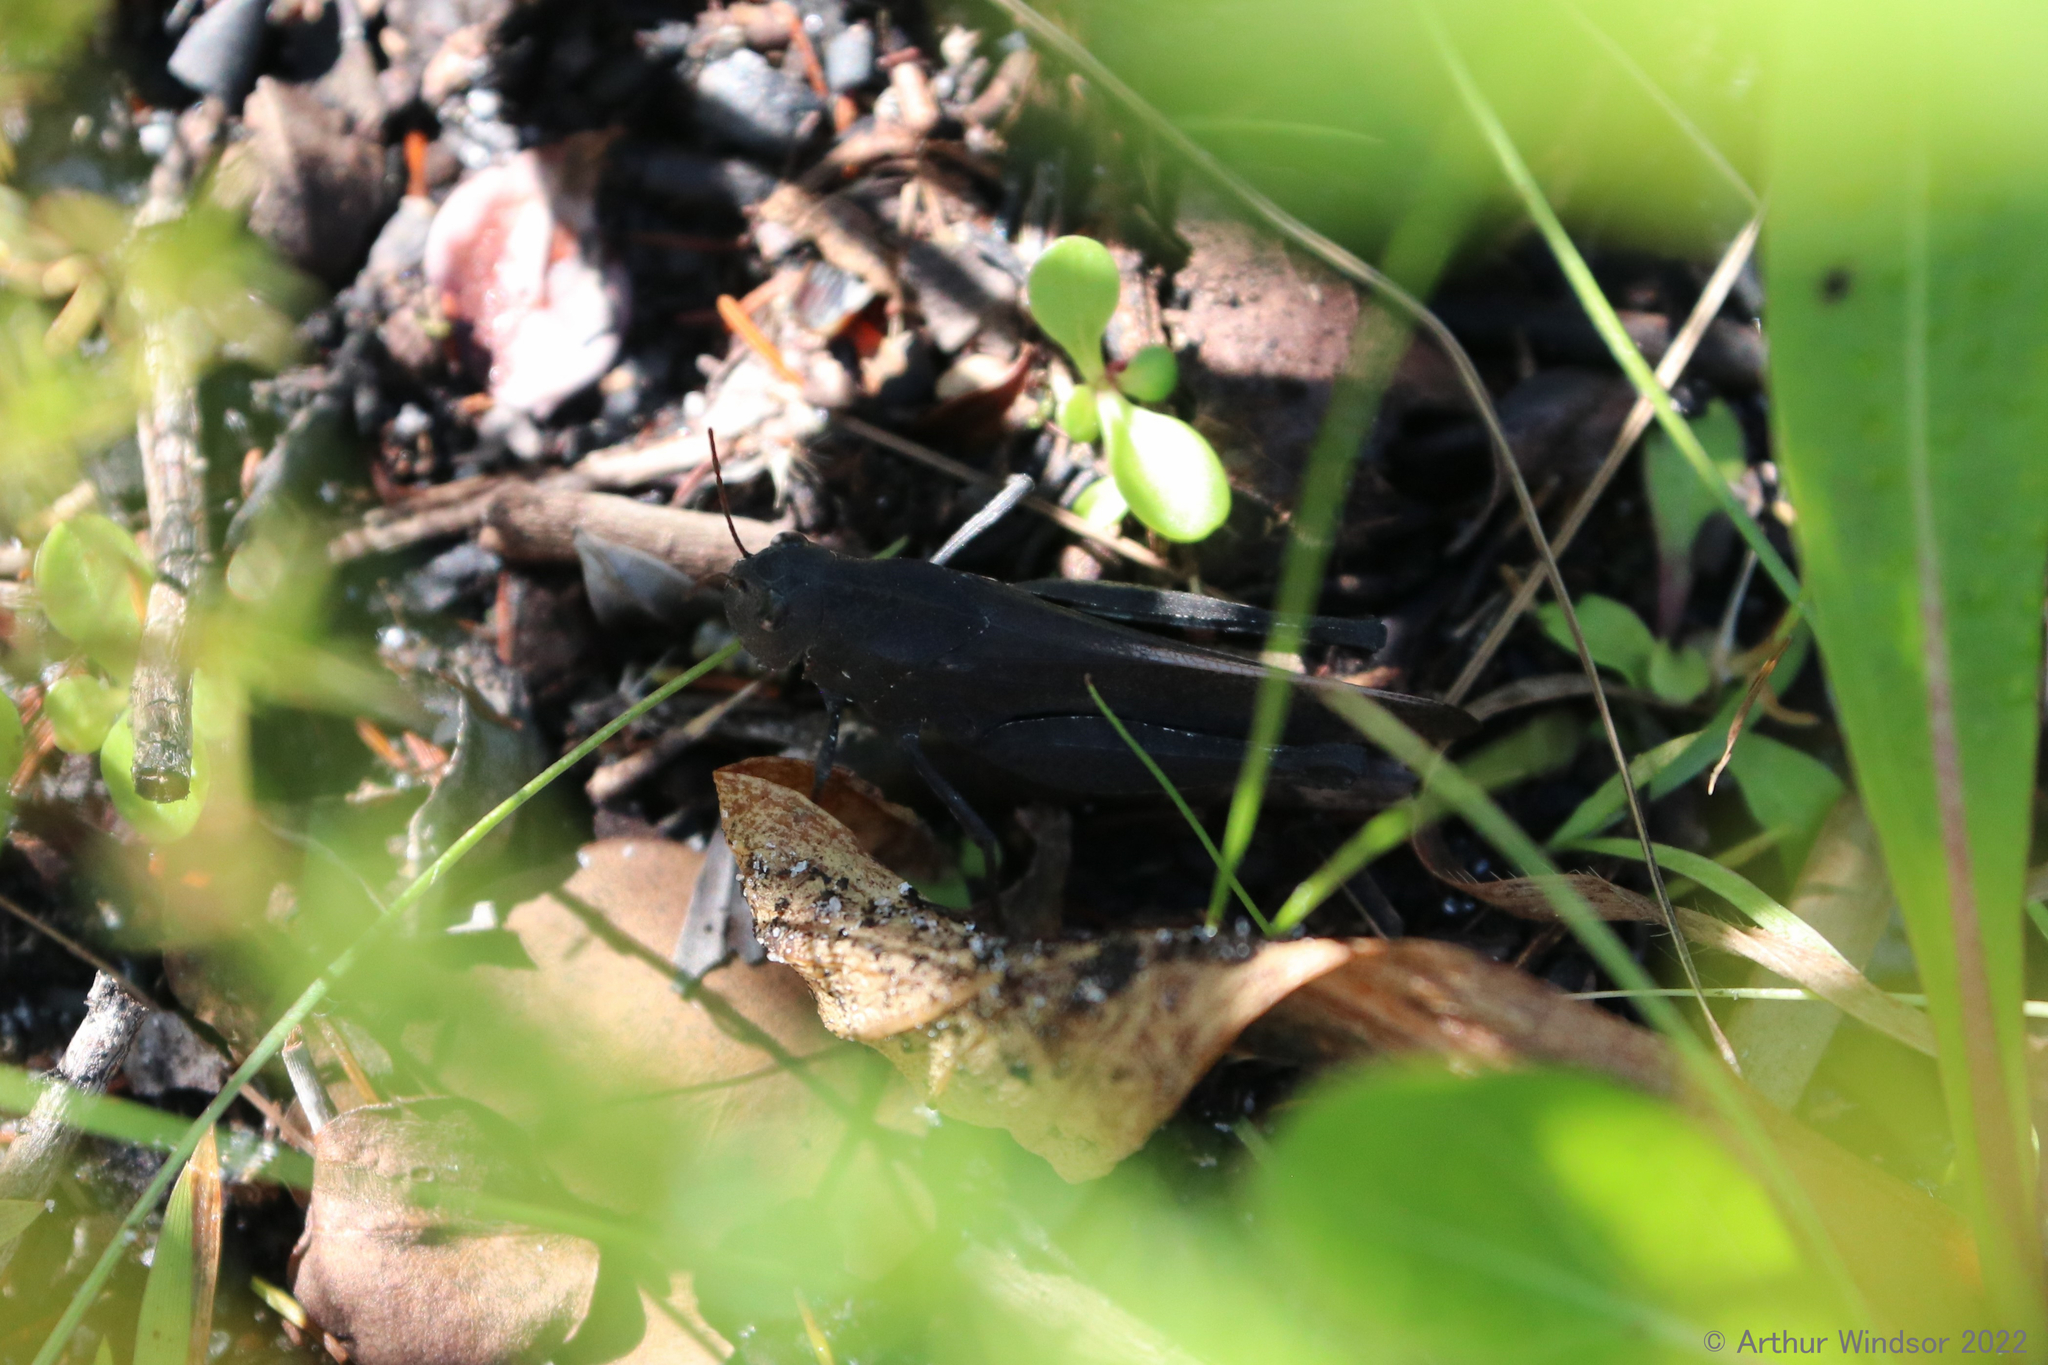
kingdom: Animalia
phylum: Arthropoda
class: Insecta
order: Orthoptera
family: Acrididae
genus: Arphia
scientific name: Arphia granulata
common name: Southern yellow-winged grasshopper
